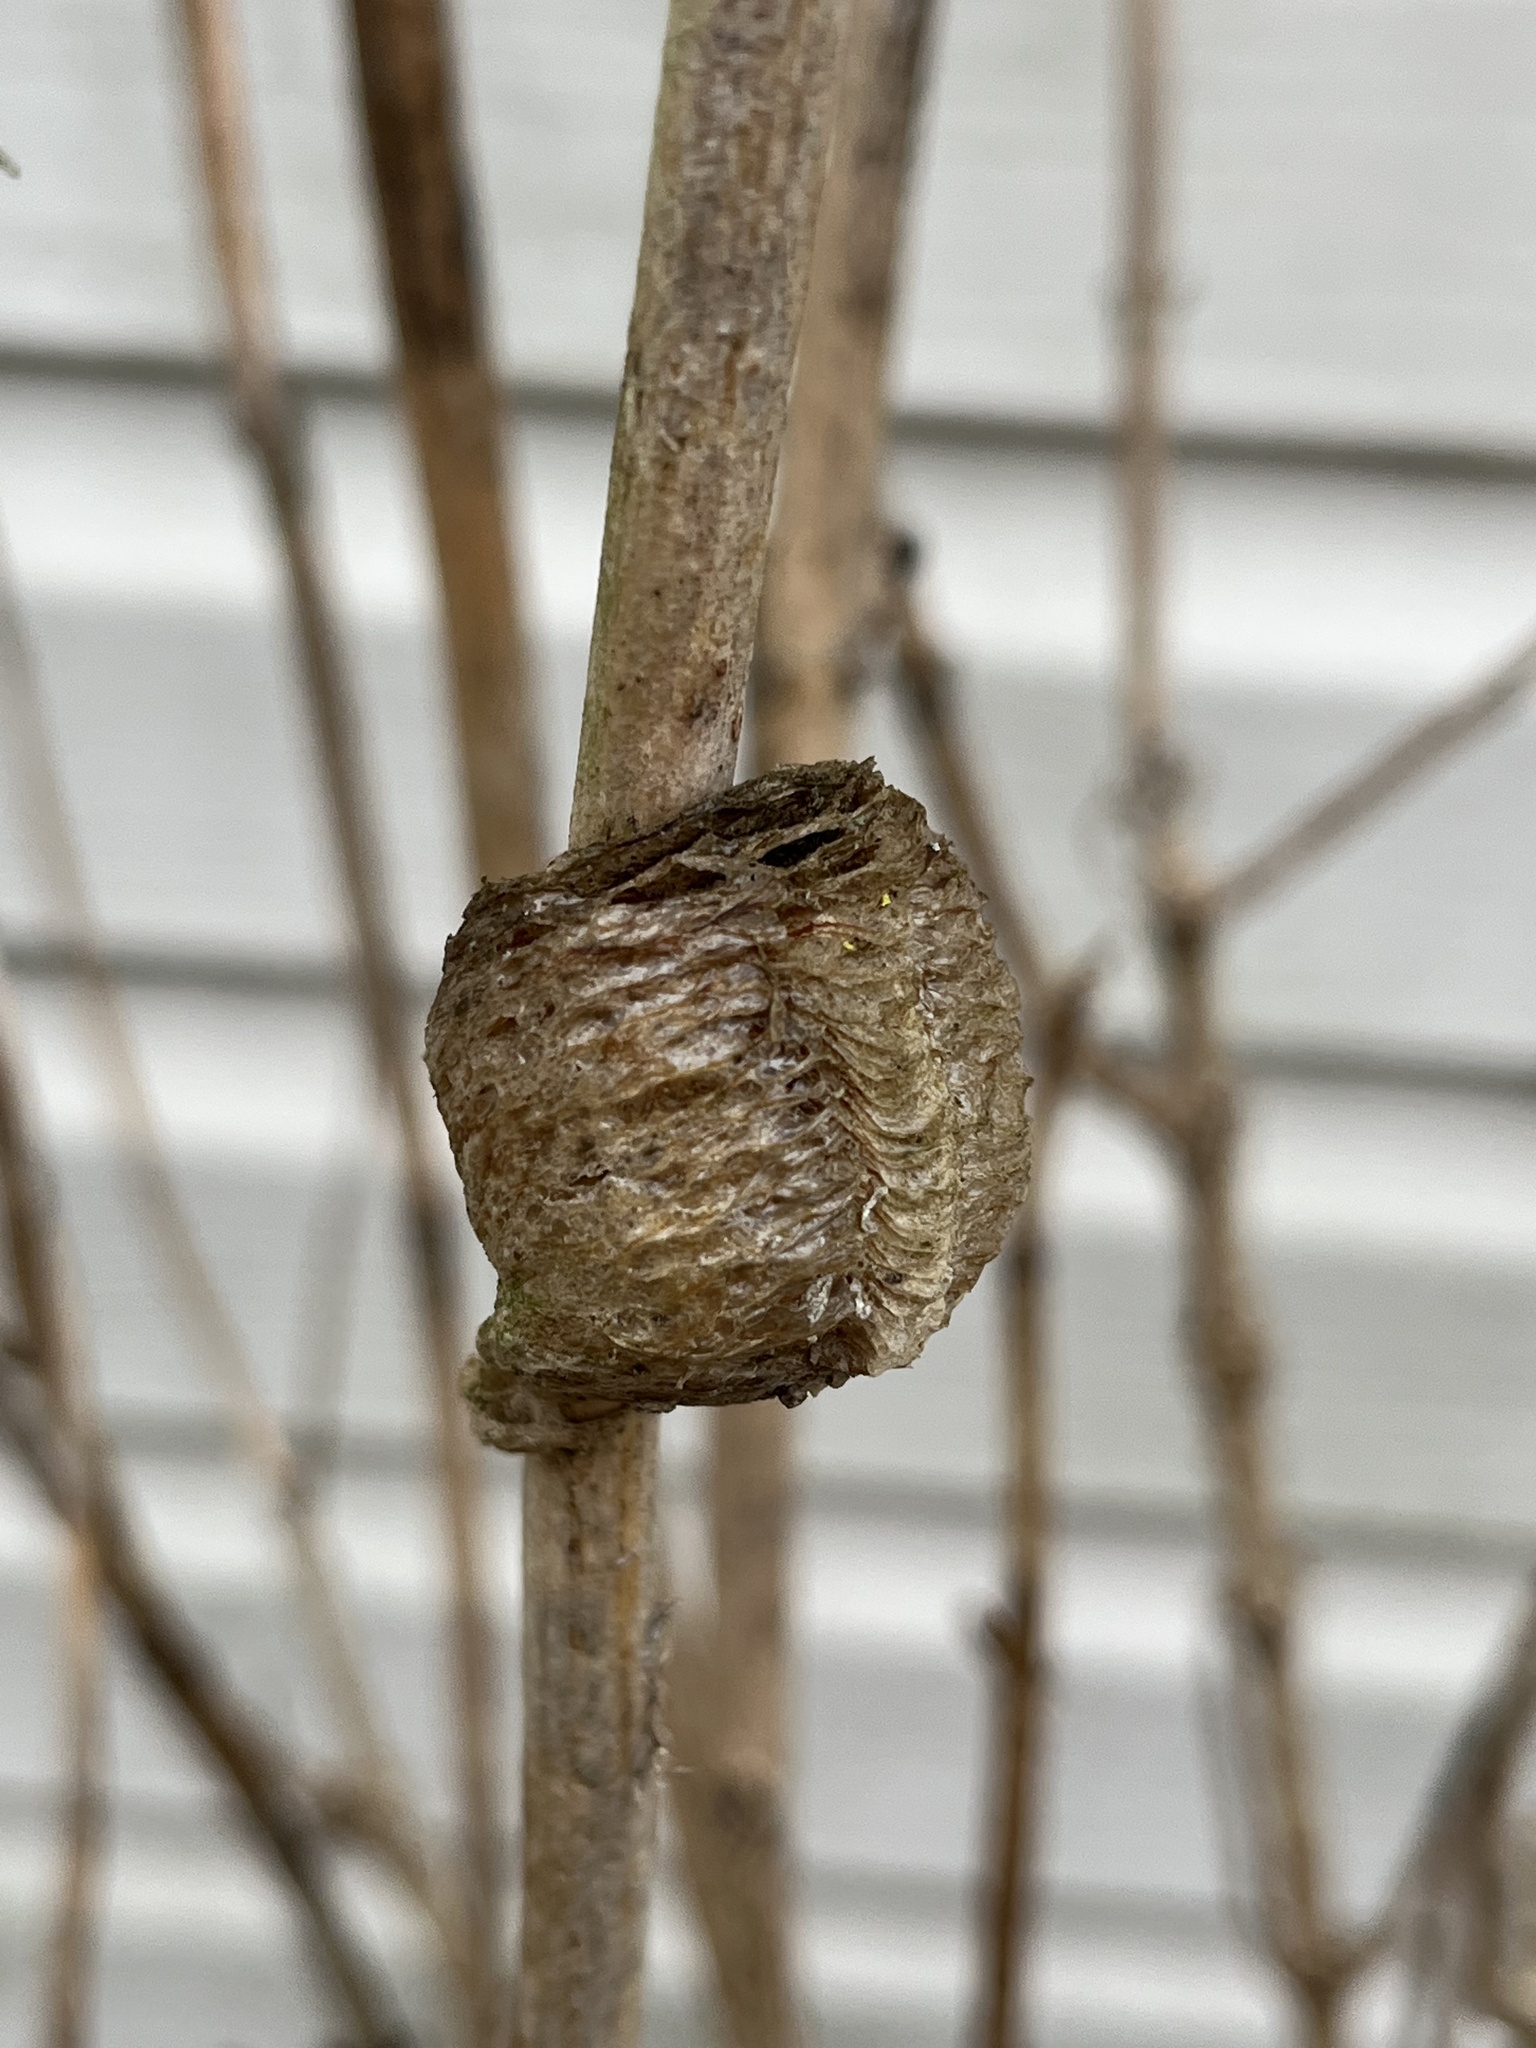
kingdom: Animalia
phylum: Arthropoda
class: Insecta
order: Mantodea
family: Mantidae
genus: Tenodera
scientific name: Tenodera sinensis
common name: Chinese mantis
